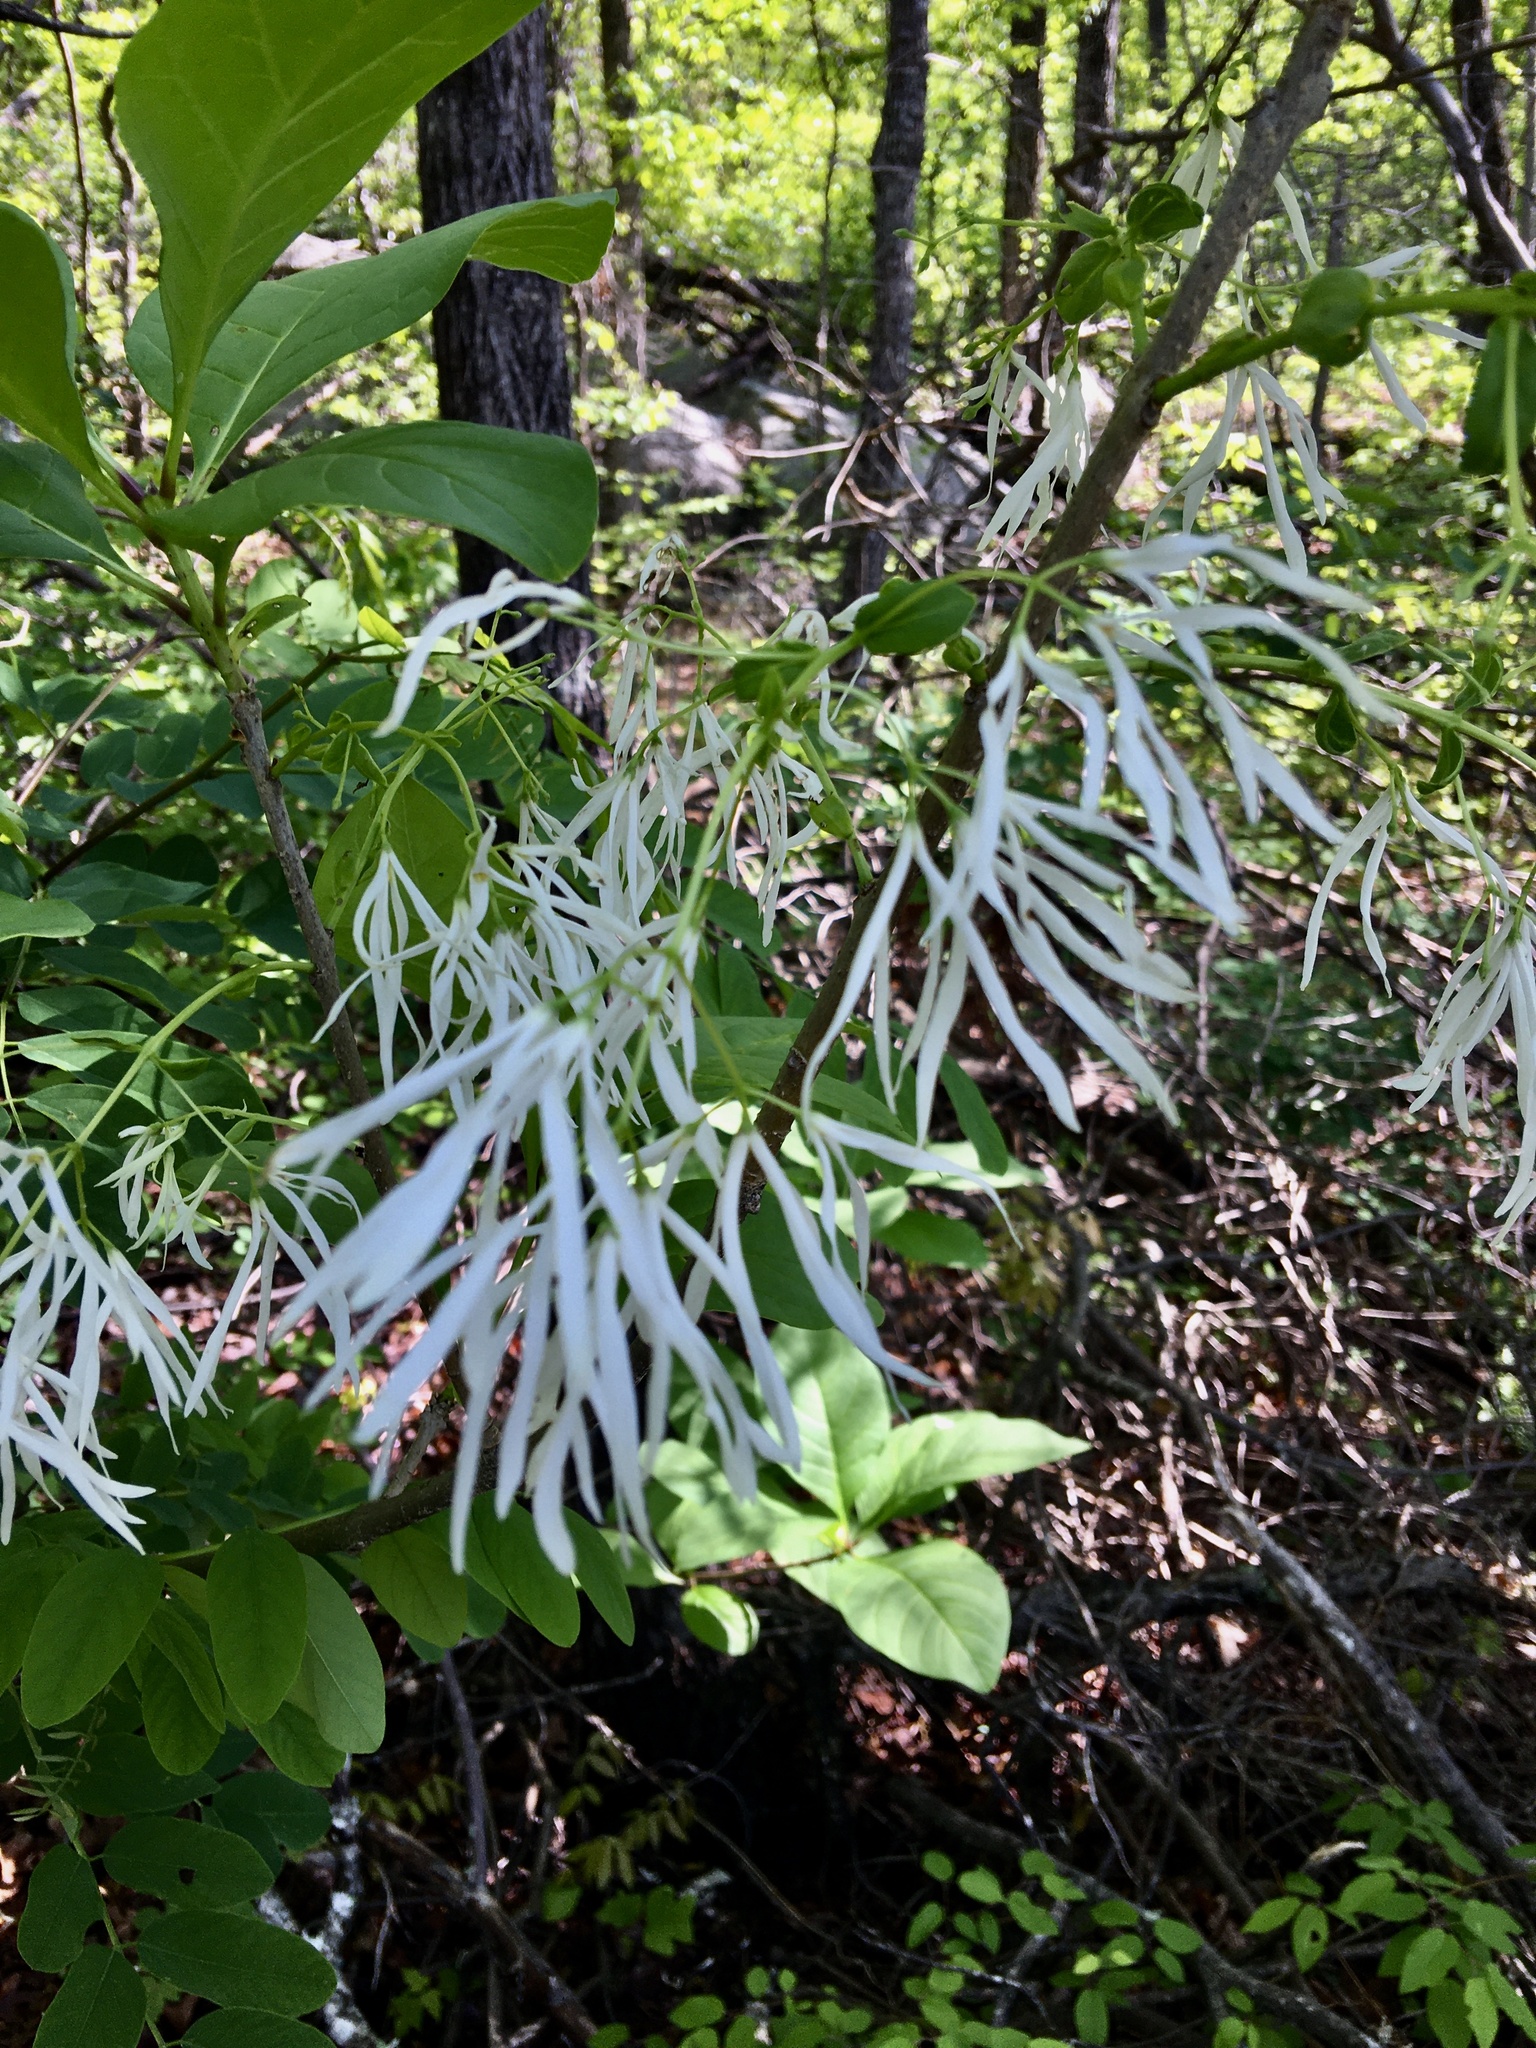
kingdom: Plantae
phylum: Tracheophyta
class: Magnoliopsida
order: Lamiales
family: Oleaceae
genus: Chionanthus
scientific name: Chionanthus virginicus
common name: American fringetree
